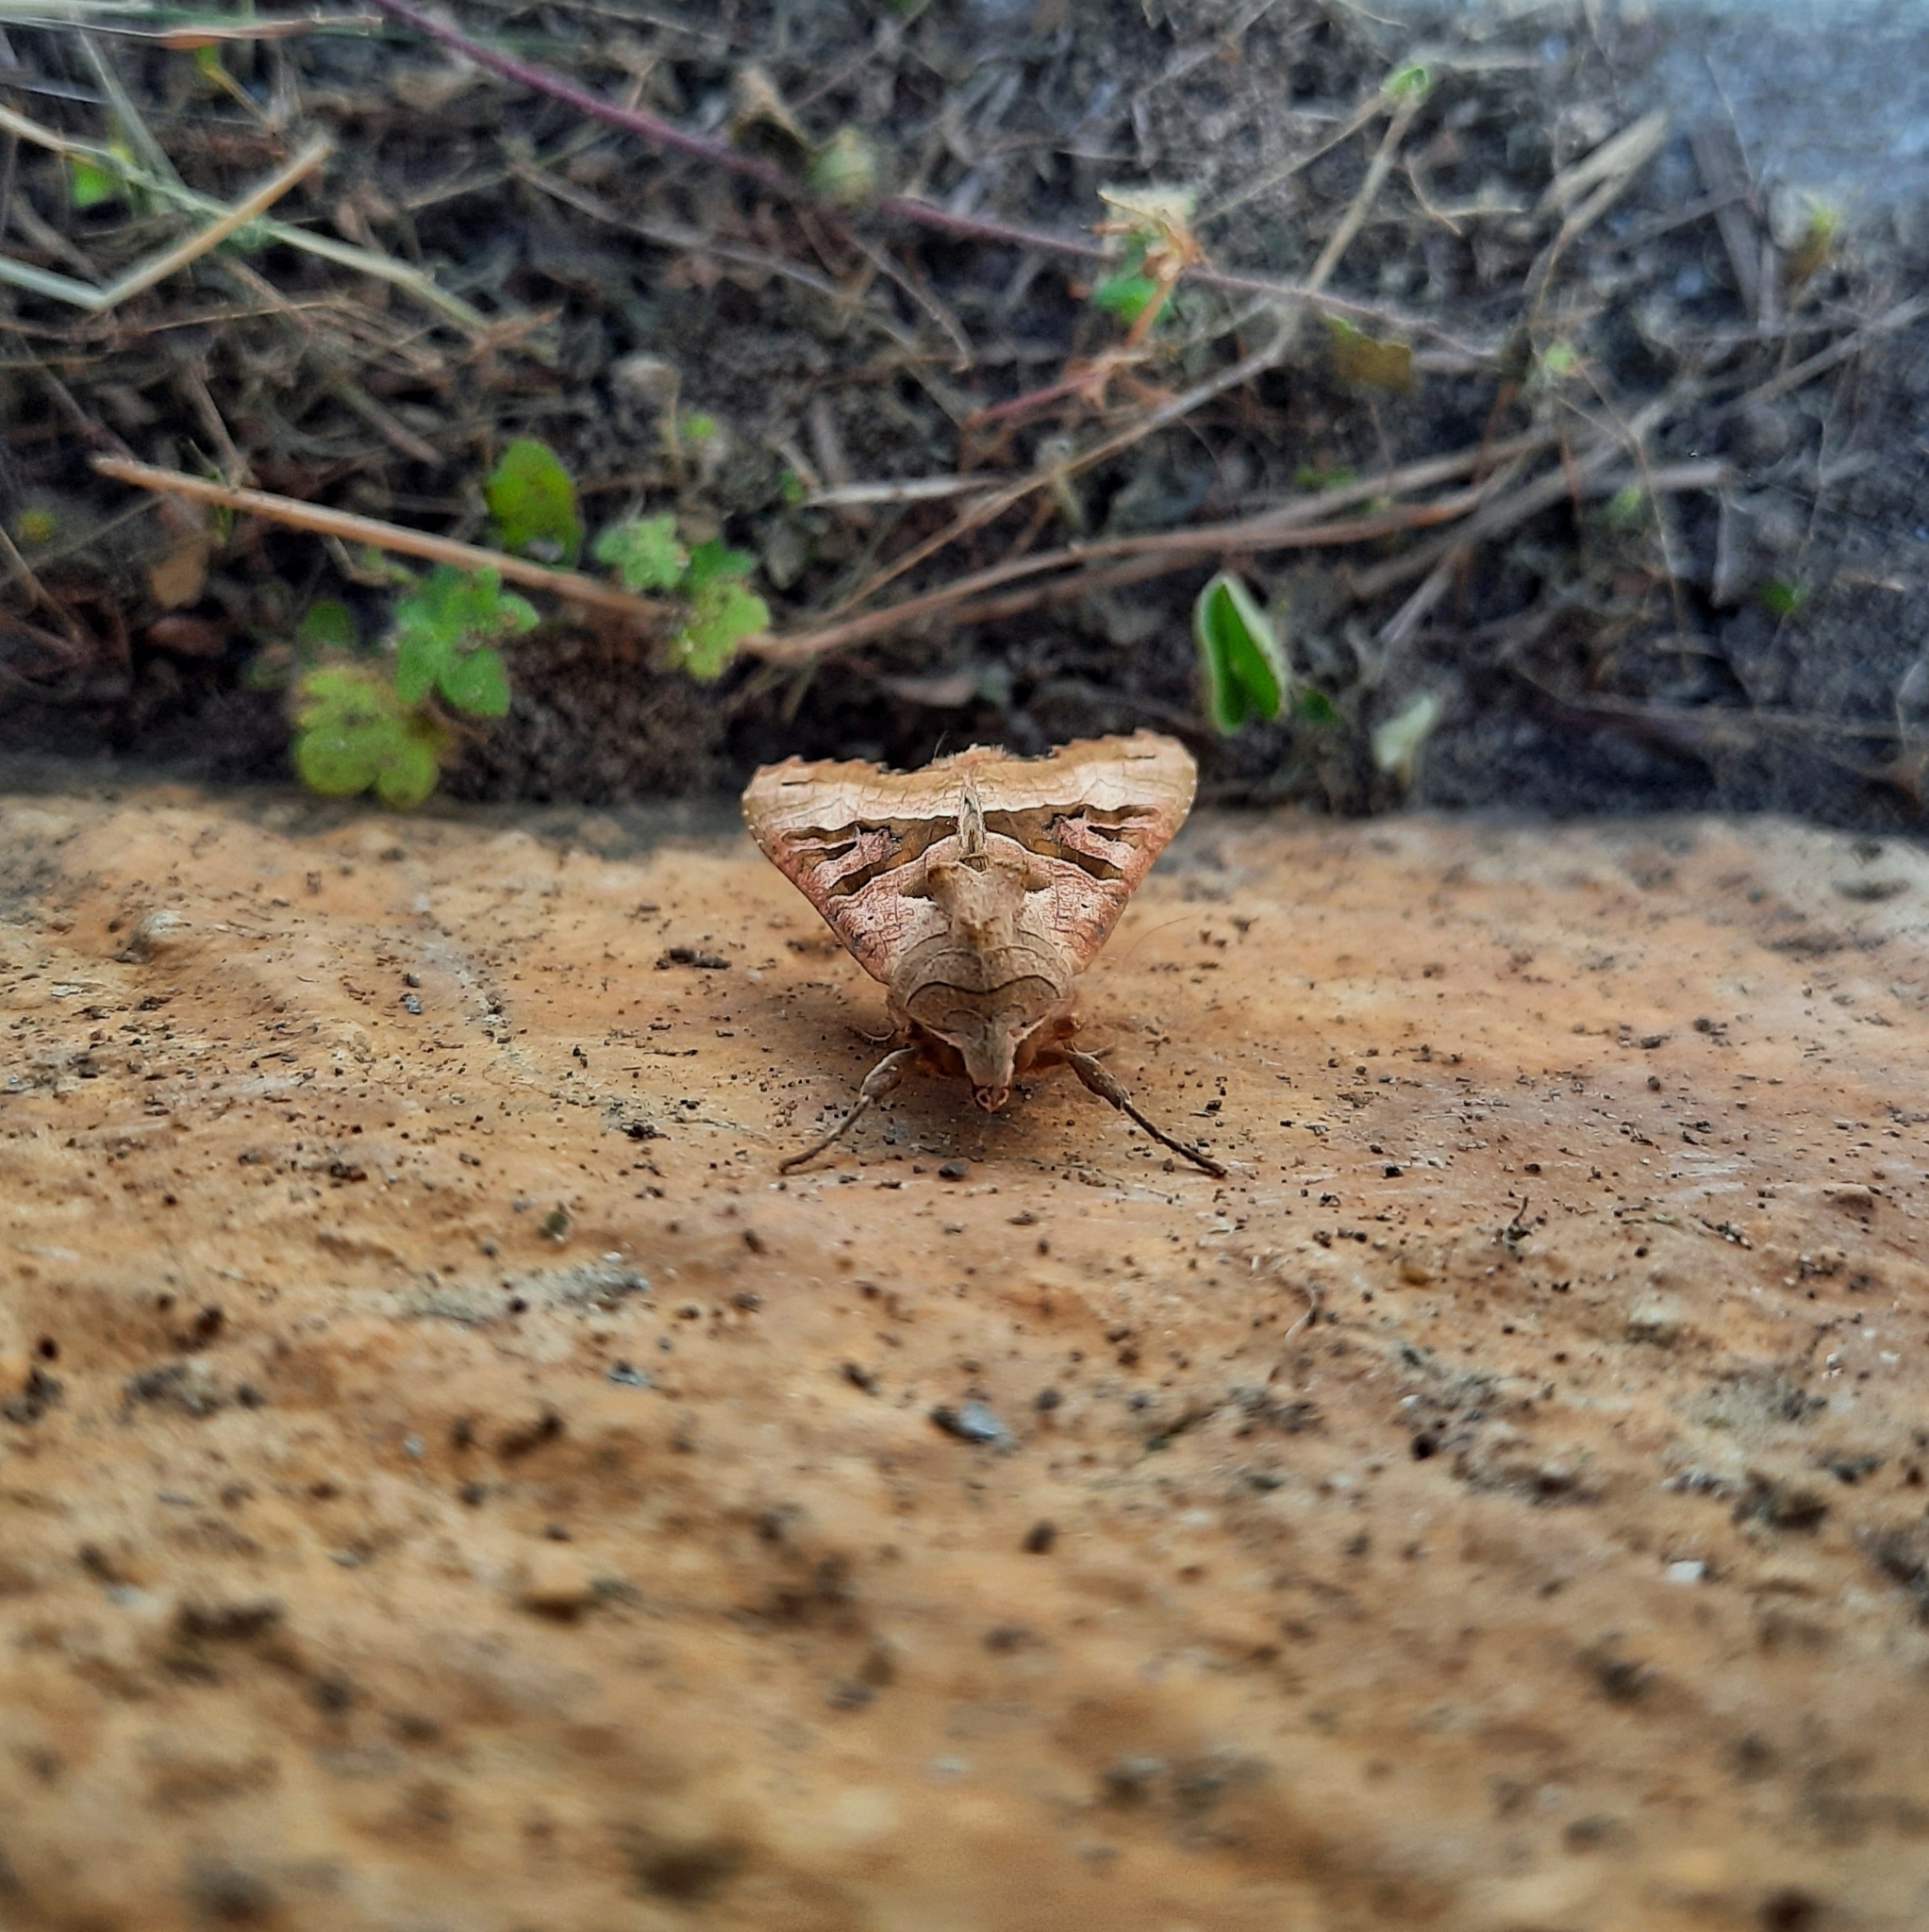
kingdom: Animalia
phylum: Arthropoda
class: Insecta
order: Lepidoptera
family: Noctuidae
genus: Phlogophora
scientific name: Phlogophora meticulosa
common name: Angle shades
